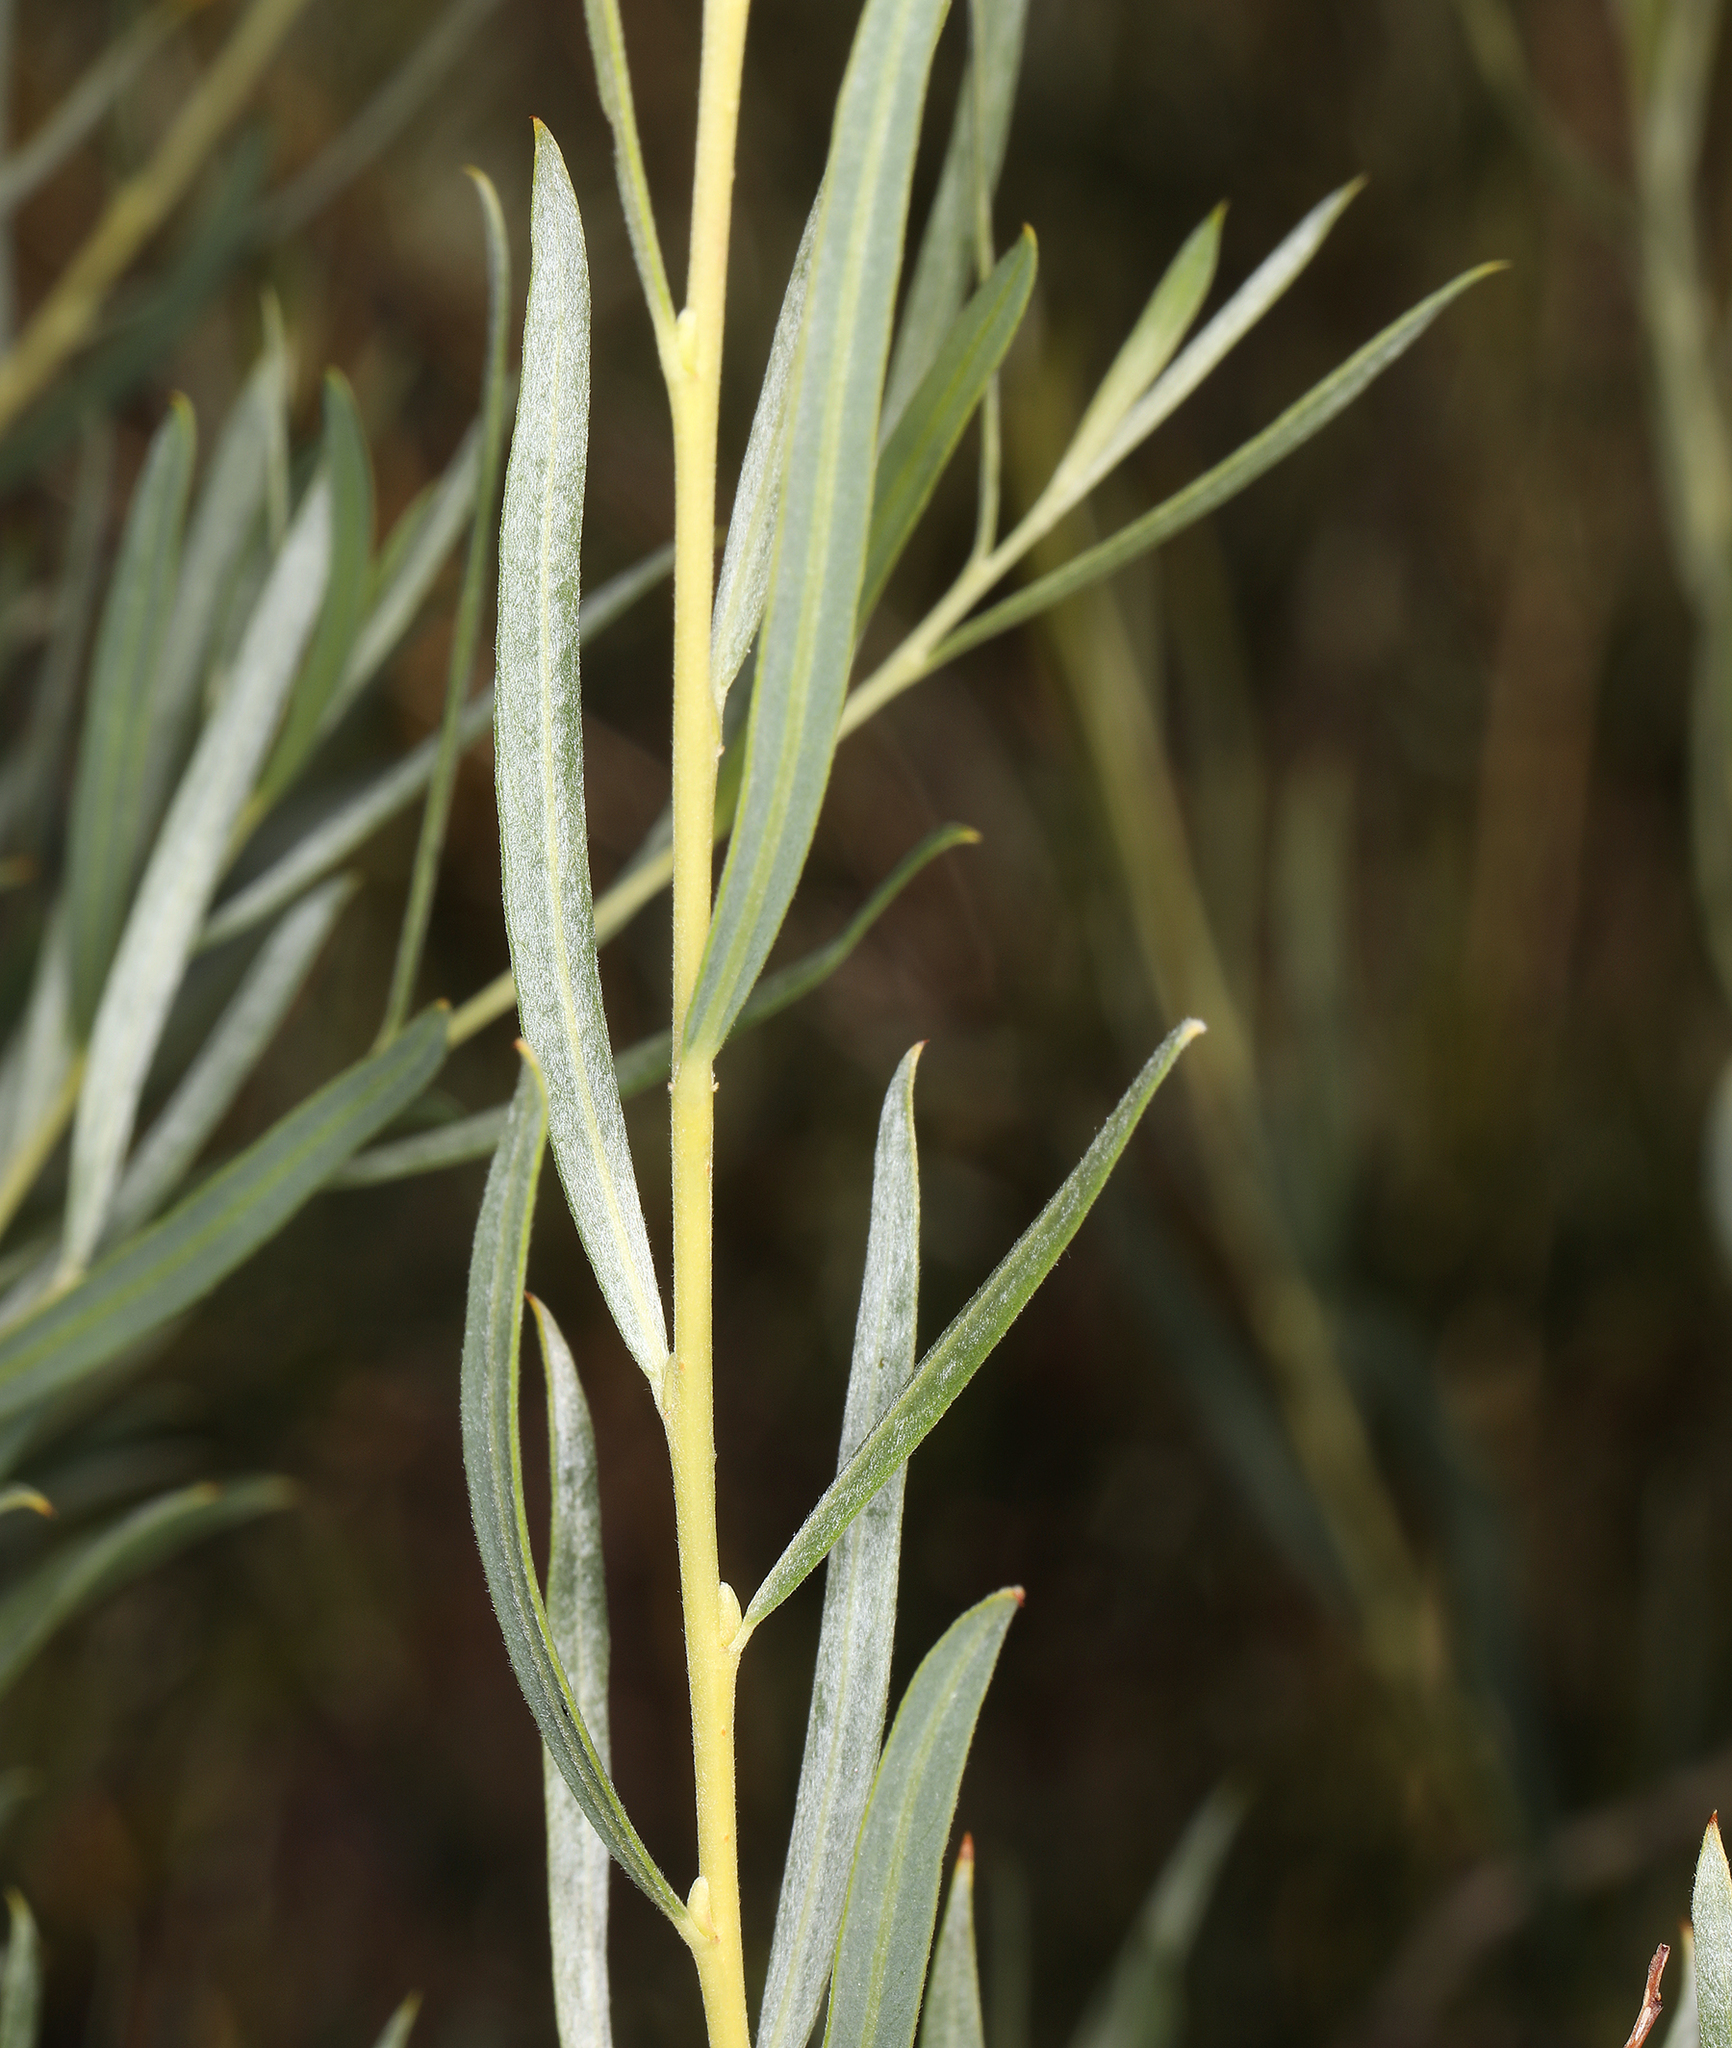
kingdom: Plantae
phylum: Tracheophyta
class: Magnoliopsida
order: Malpighiales
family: Salicaceae
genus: Salix
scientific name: Salix exigua
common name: Coyote willow
